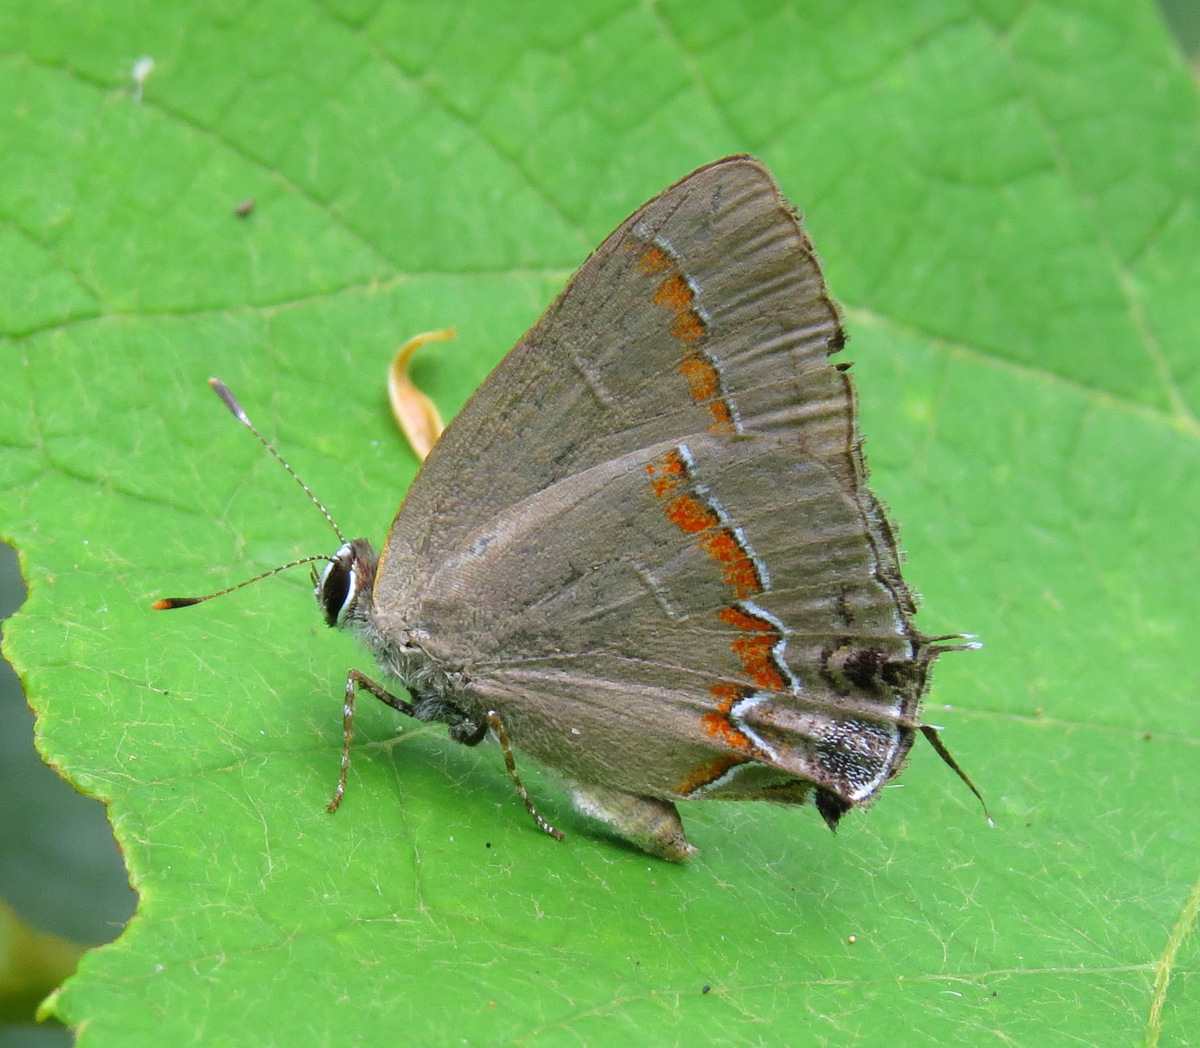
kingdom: Animalia
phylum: Arthropoda
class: Insecta
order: Lepidoptera
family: Lycaenidae
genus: Calycopis
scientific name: Calycopis cecrops
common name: Red-banded hairstreak
